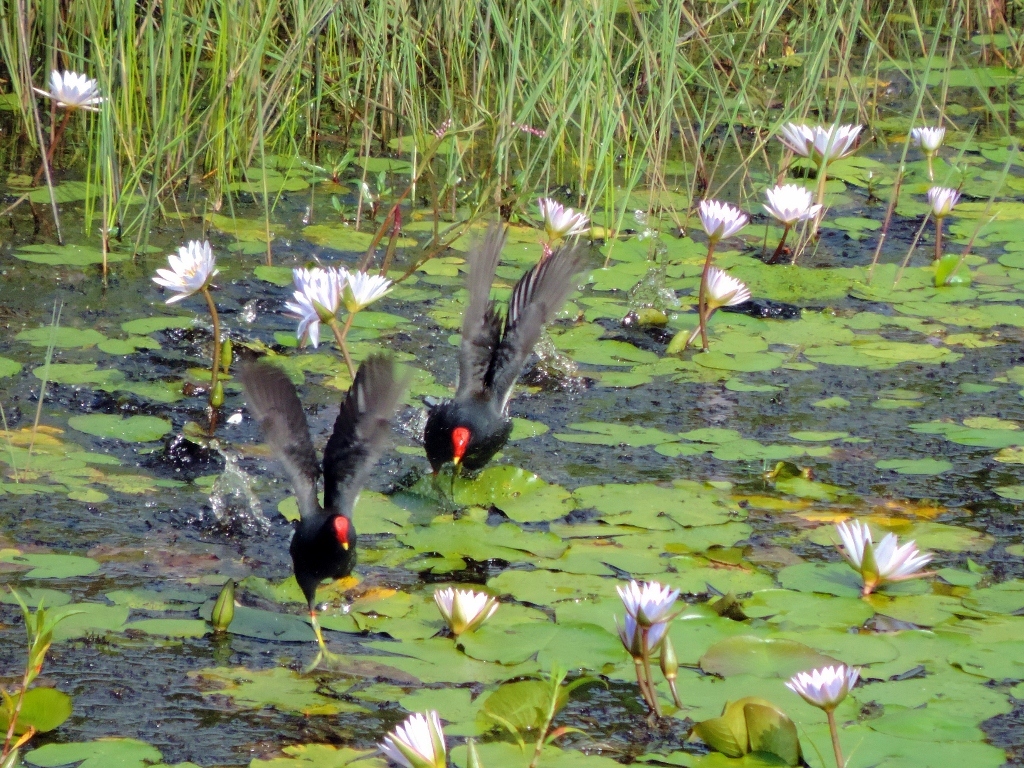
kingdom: Animalia
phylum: Chordata
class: Aves
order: Gruiformes
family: Rallidae
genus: Gallinula
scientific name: Gallinula chloropus
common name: Common moorhen
